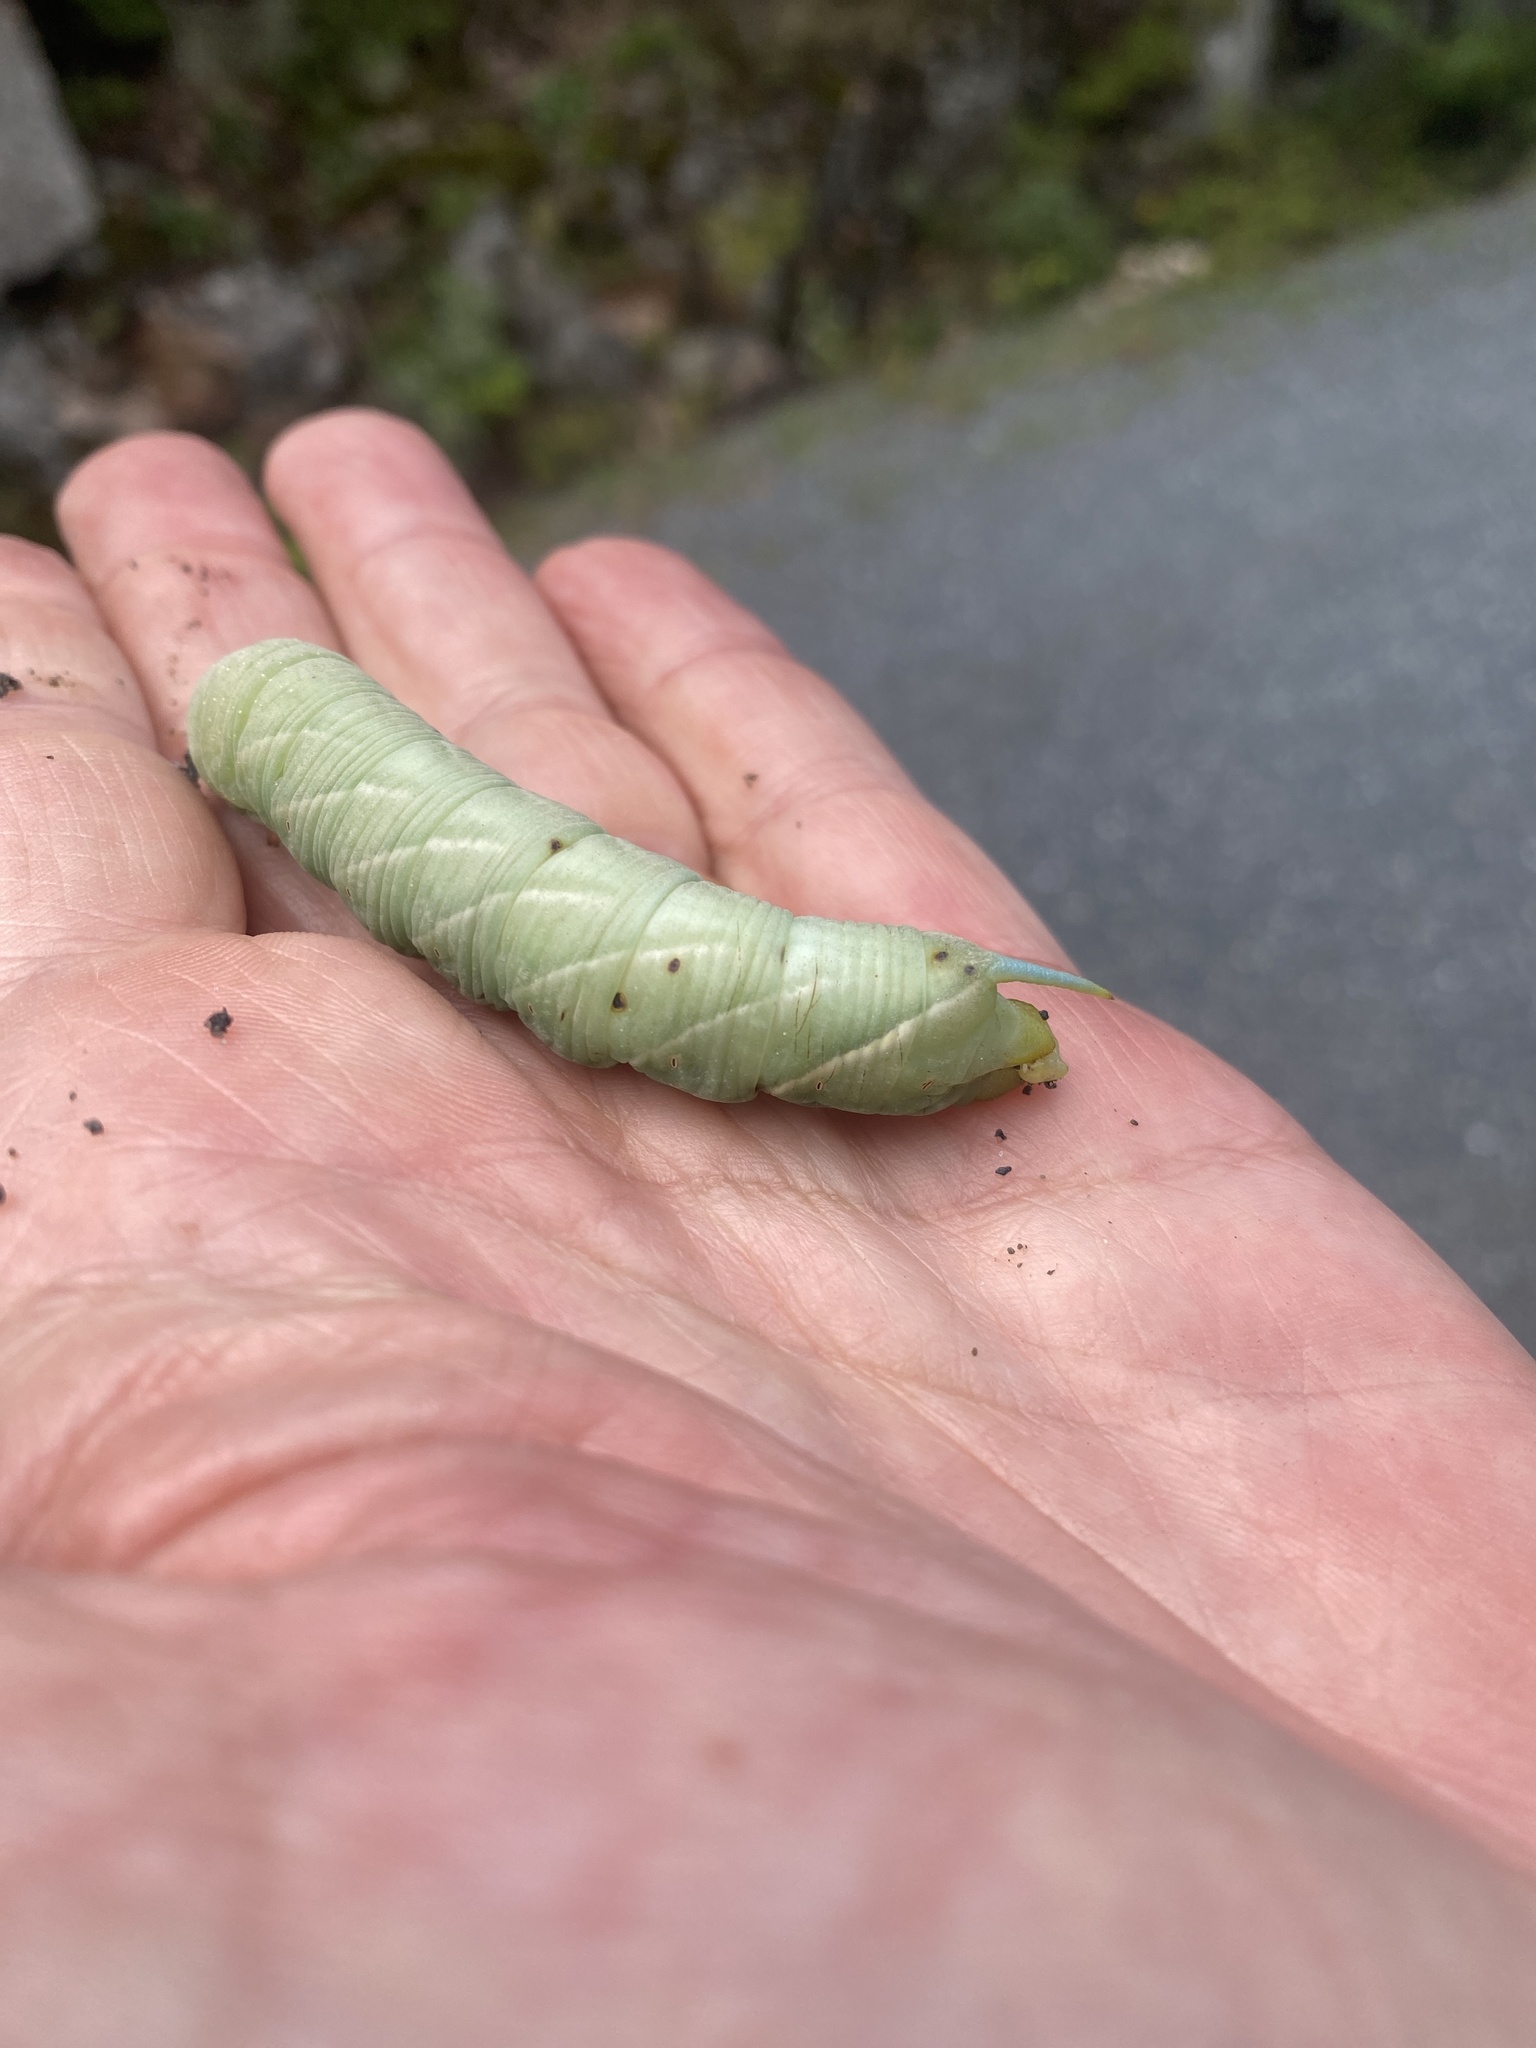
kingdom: Animalia
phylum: Arthropoda
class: Insecta
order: Lepidoptera
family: Sphingidae
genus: Sphinx
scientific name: Sphinx chersis
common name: Great ash sphinx
